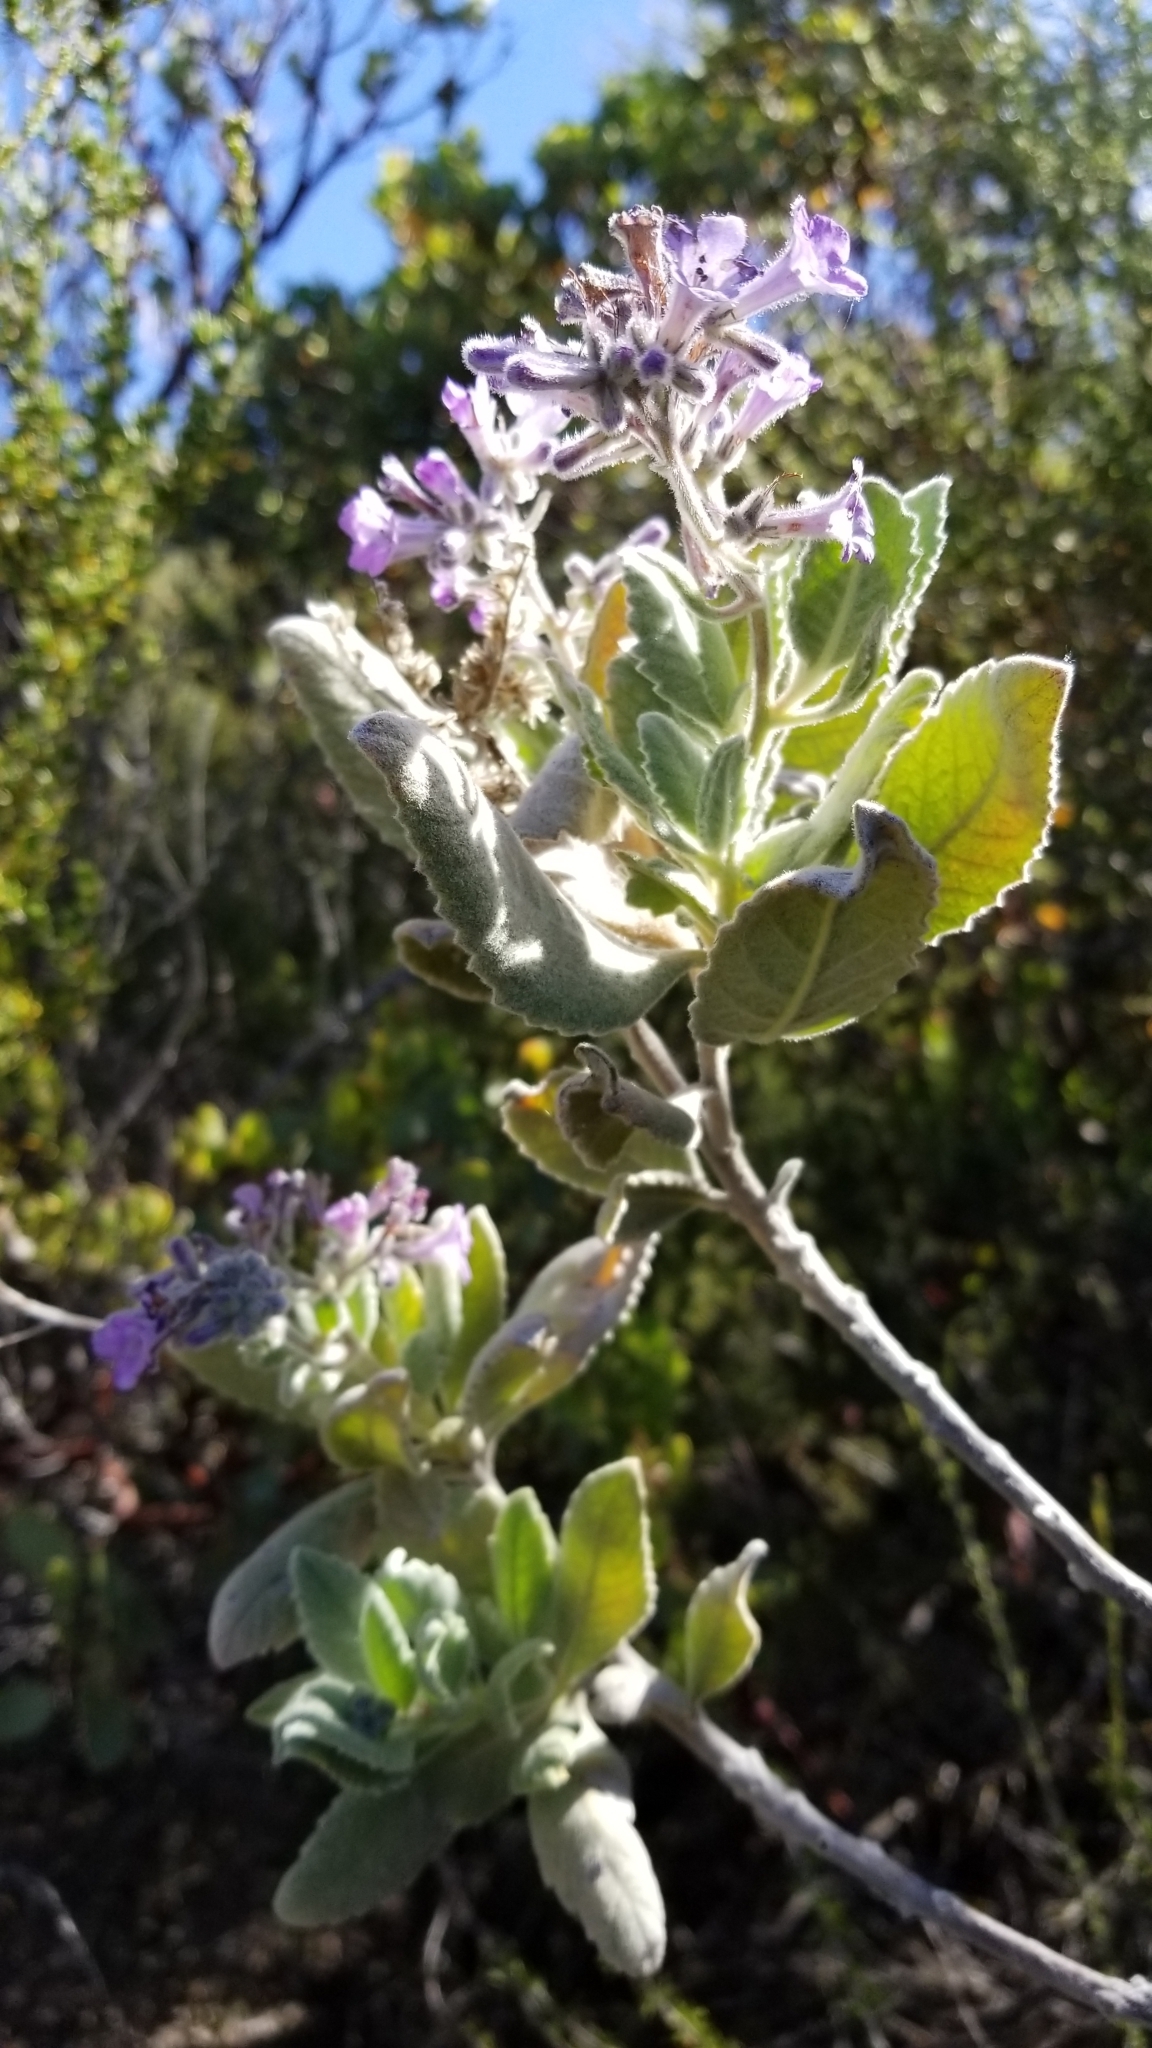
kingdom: Plantae
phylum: Tracheophyta
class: Magnoliopsida
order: Boraginales
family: Namaceae
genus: Eriodictyon
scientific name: Eriodictyon crassifolium
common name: Thick-leaf yerba-santa
